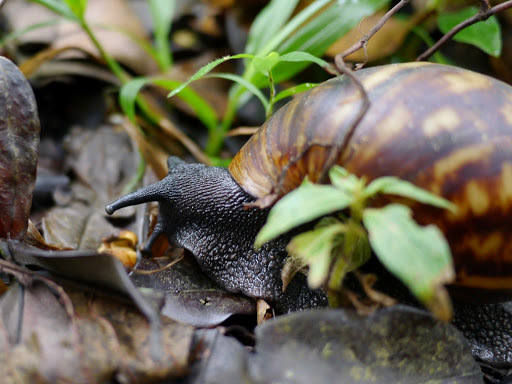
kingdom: Animalia
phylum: Mollusca
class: Gastropoda
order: Stylommatophora
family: Achatinidae
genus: Archachatina
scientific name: Archachatina marginata
